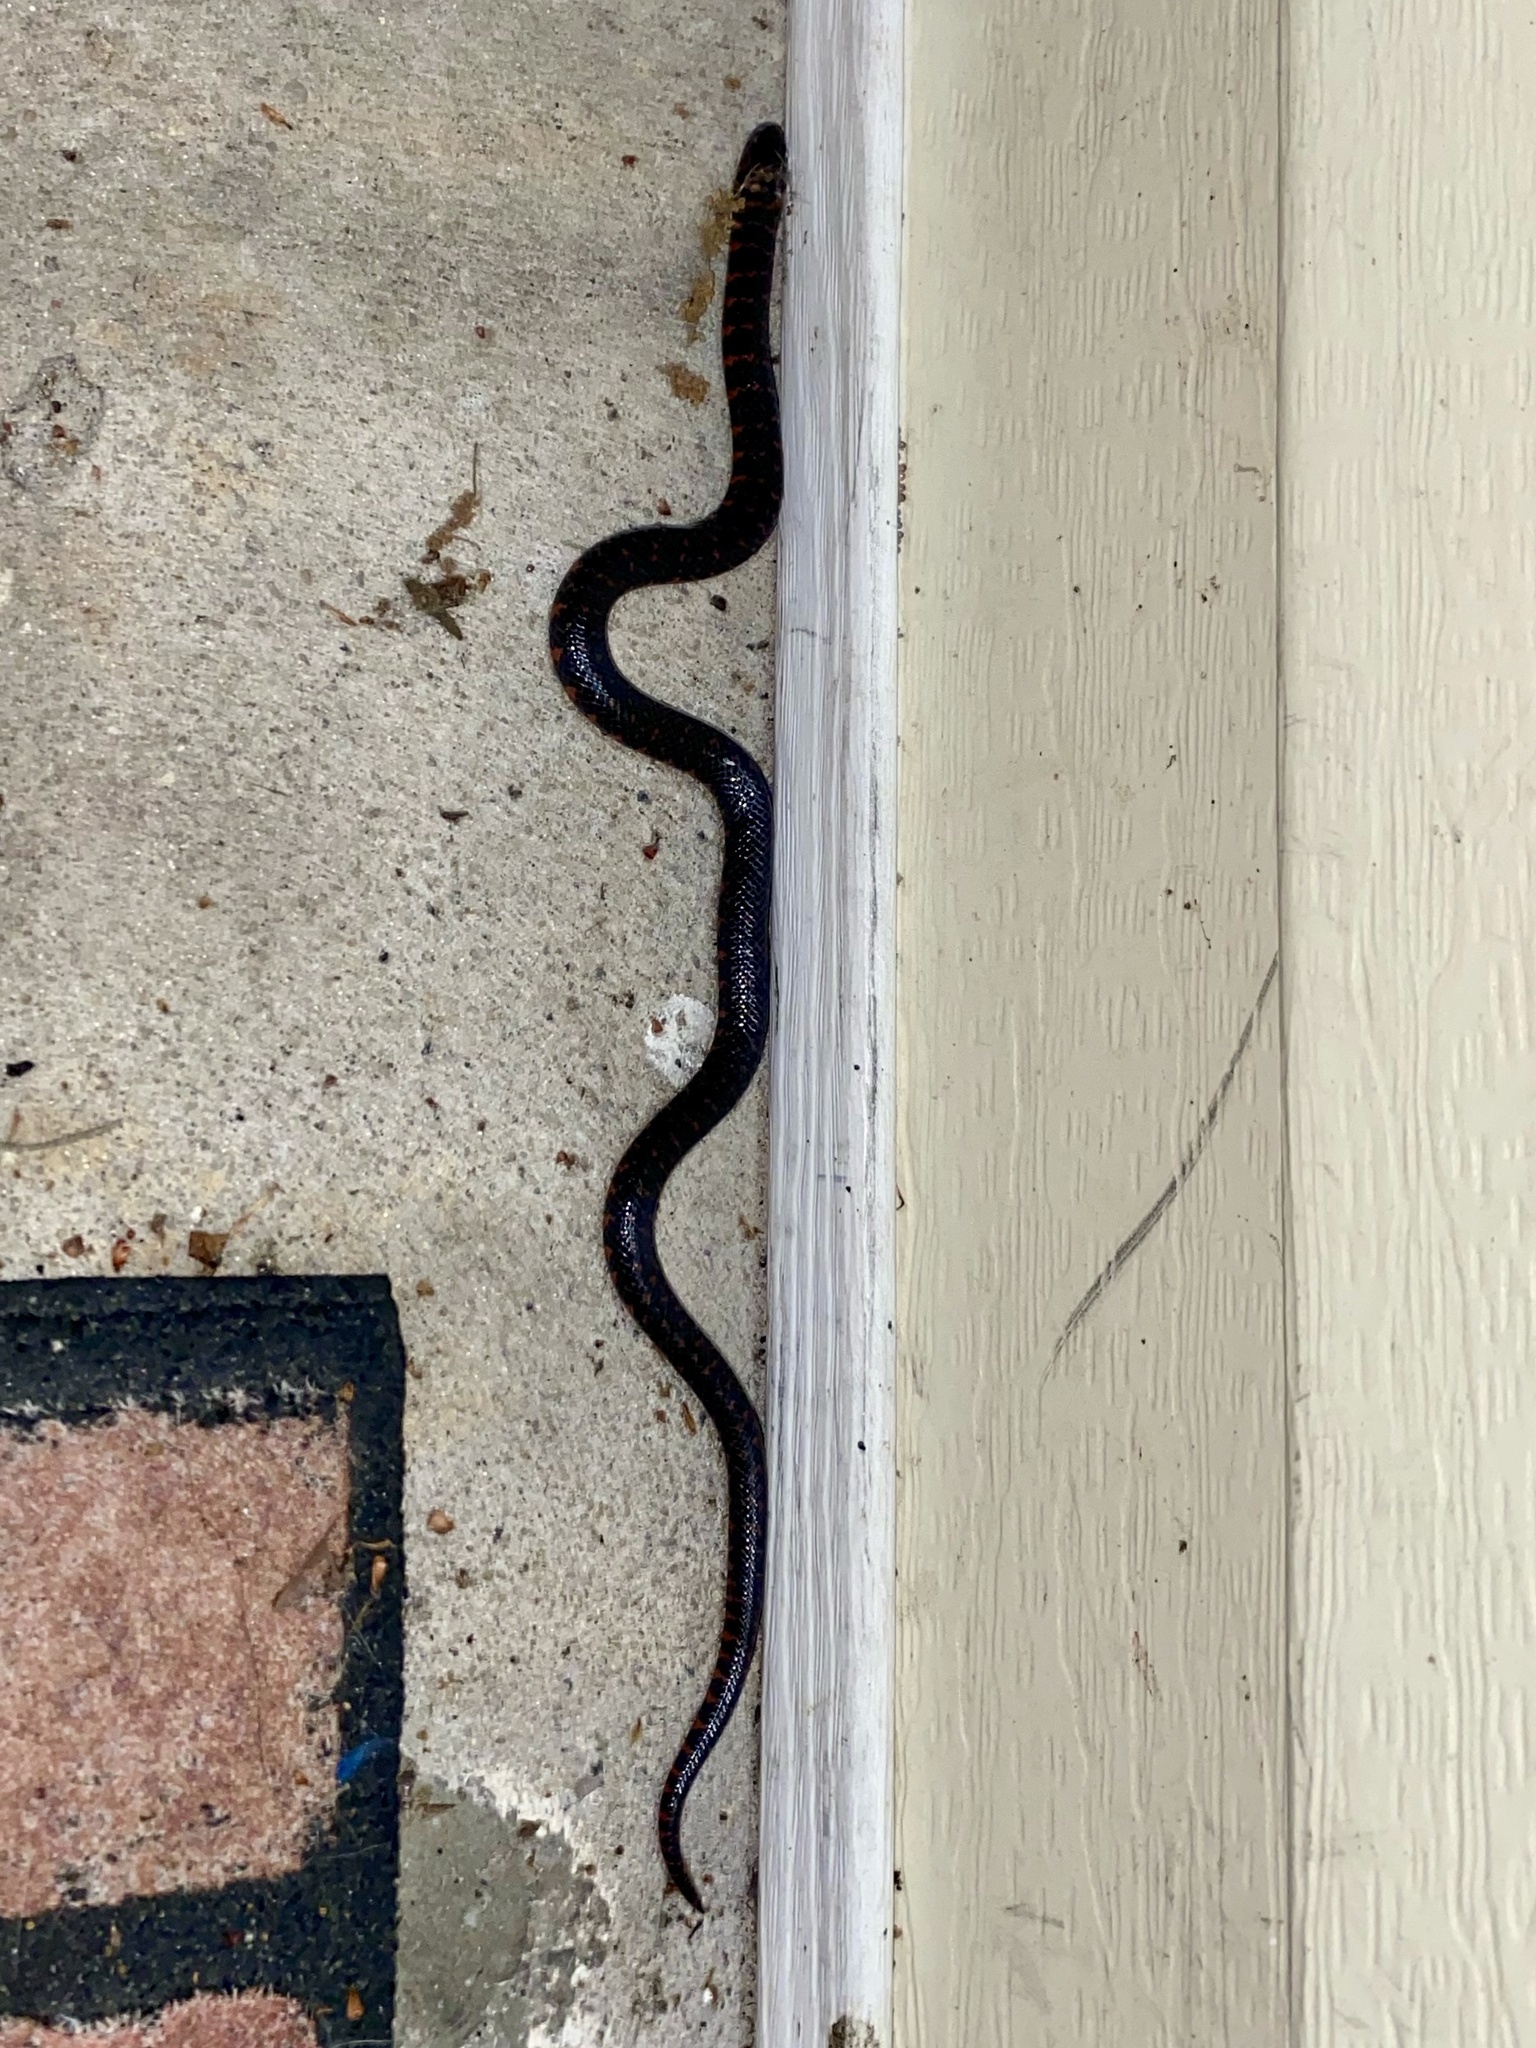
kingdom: Animalia
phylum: Chordata
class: Squamata
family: Colubridae
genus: Farancia
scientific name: Farancia abacura
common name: Mud snake
